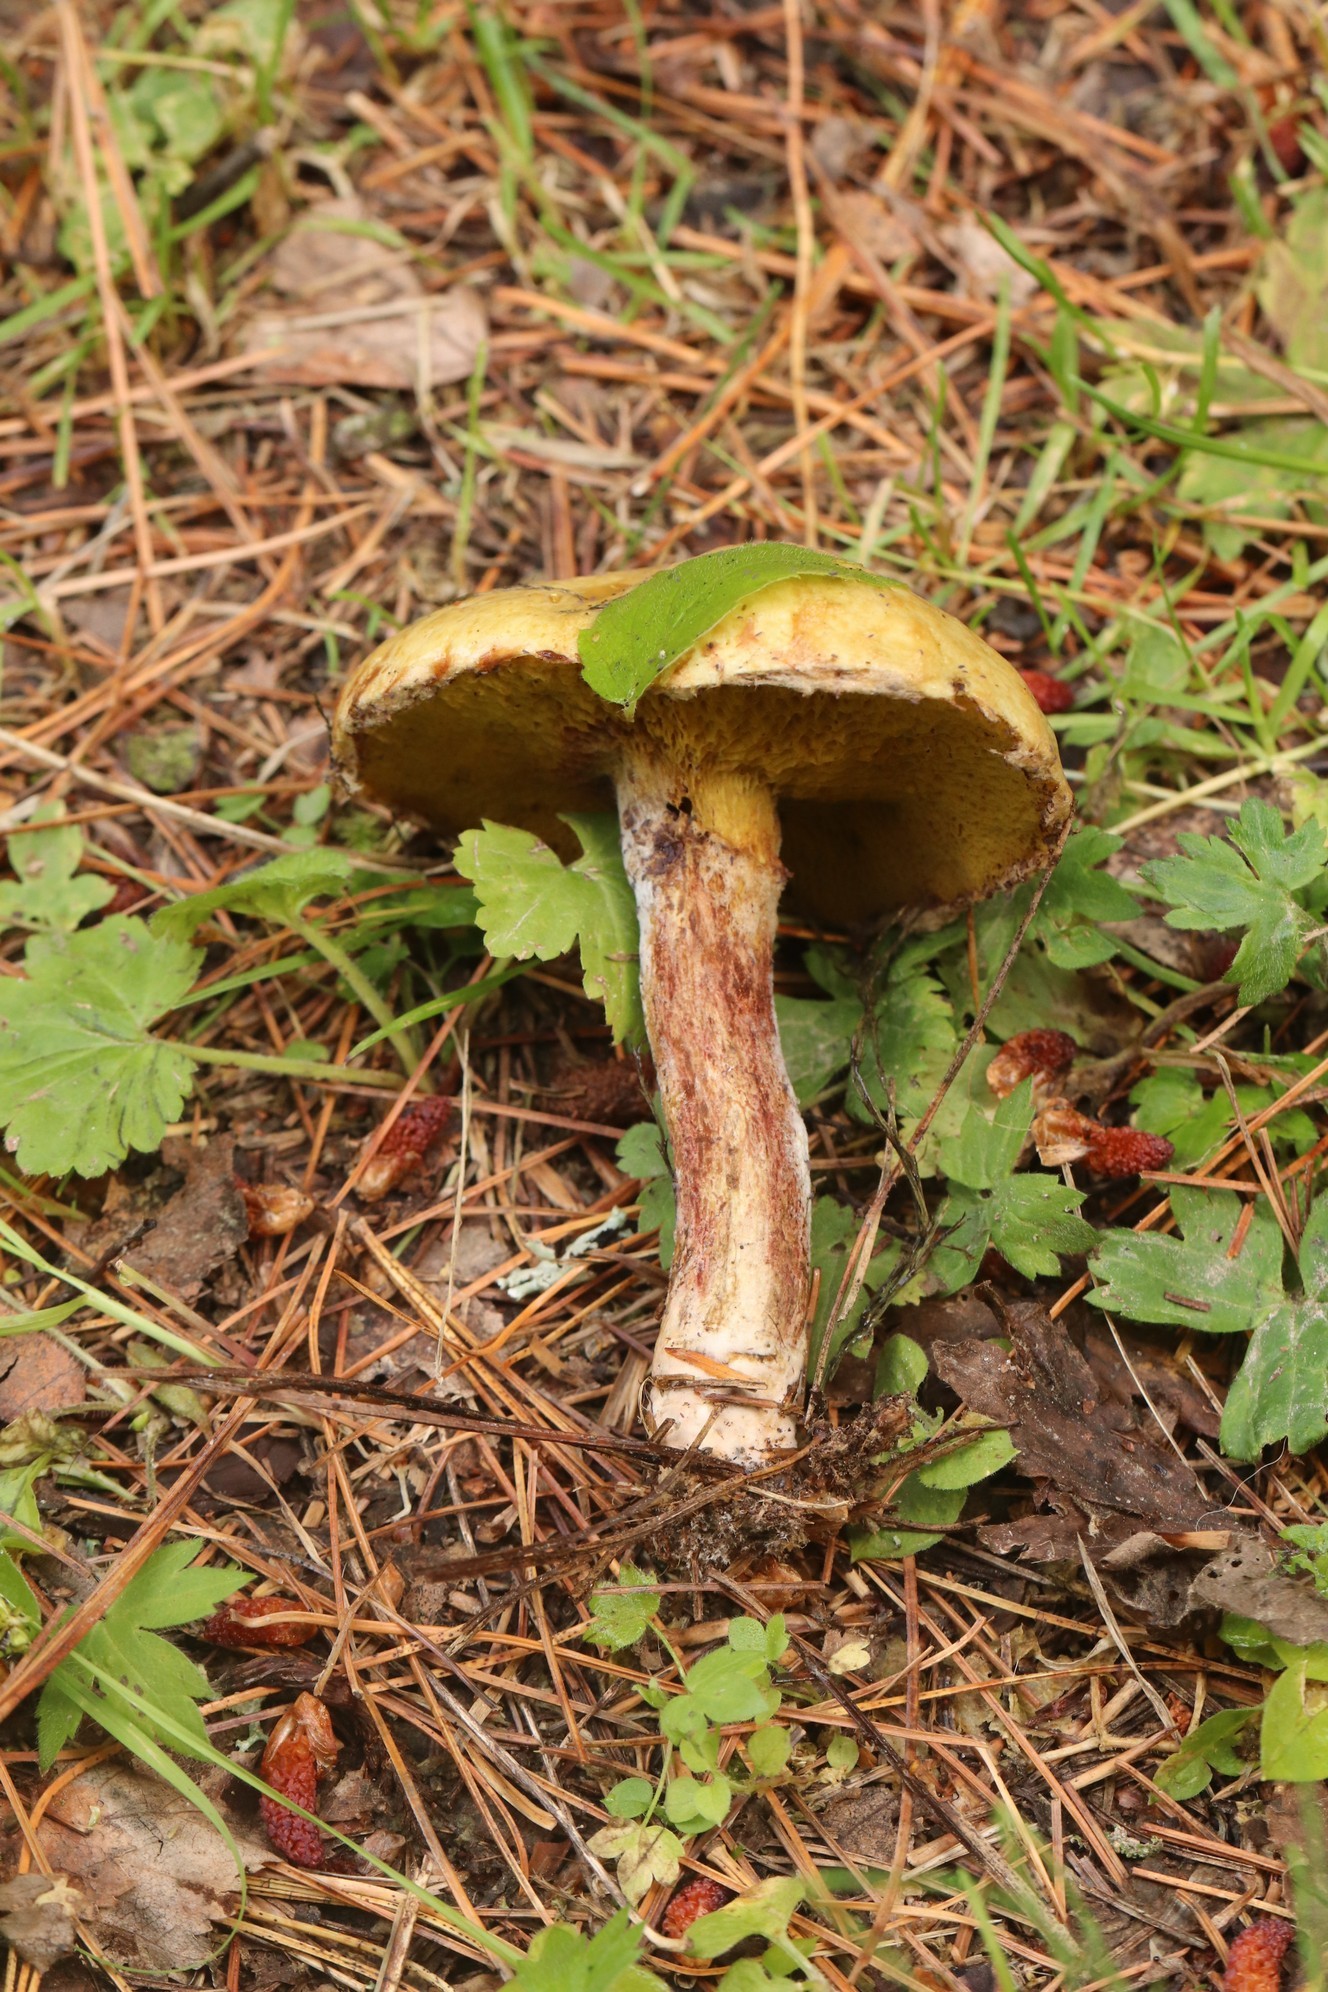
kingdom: Fungi
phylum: Basidiomycota
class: Agaricomycetes
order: Boletales
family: Suillaceae
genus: Suillus
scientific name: Suillus americanus
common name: Chicken fat mushroom
